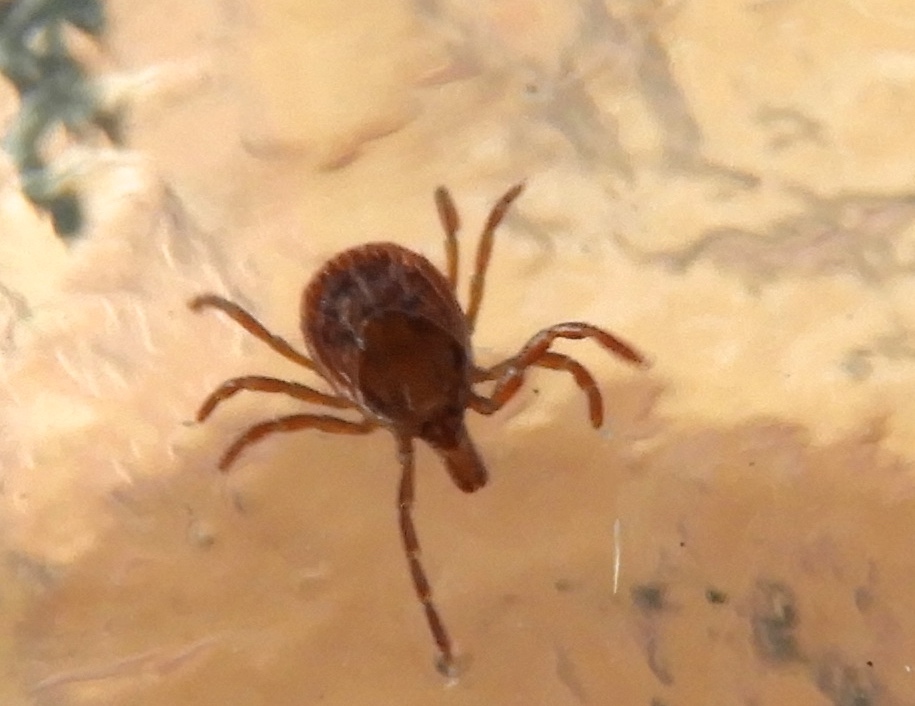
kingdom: Animalia
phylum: Arthropoda
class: Arachnida
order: Ixodida
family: Ixodidae
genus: Amblyomma
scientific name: Amblyomma
